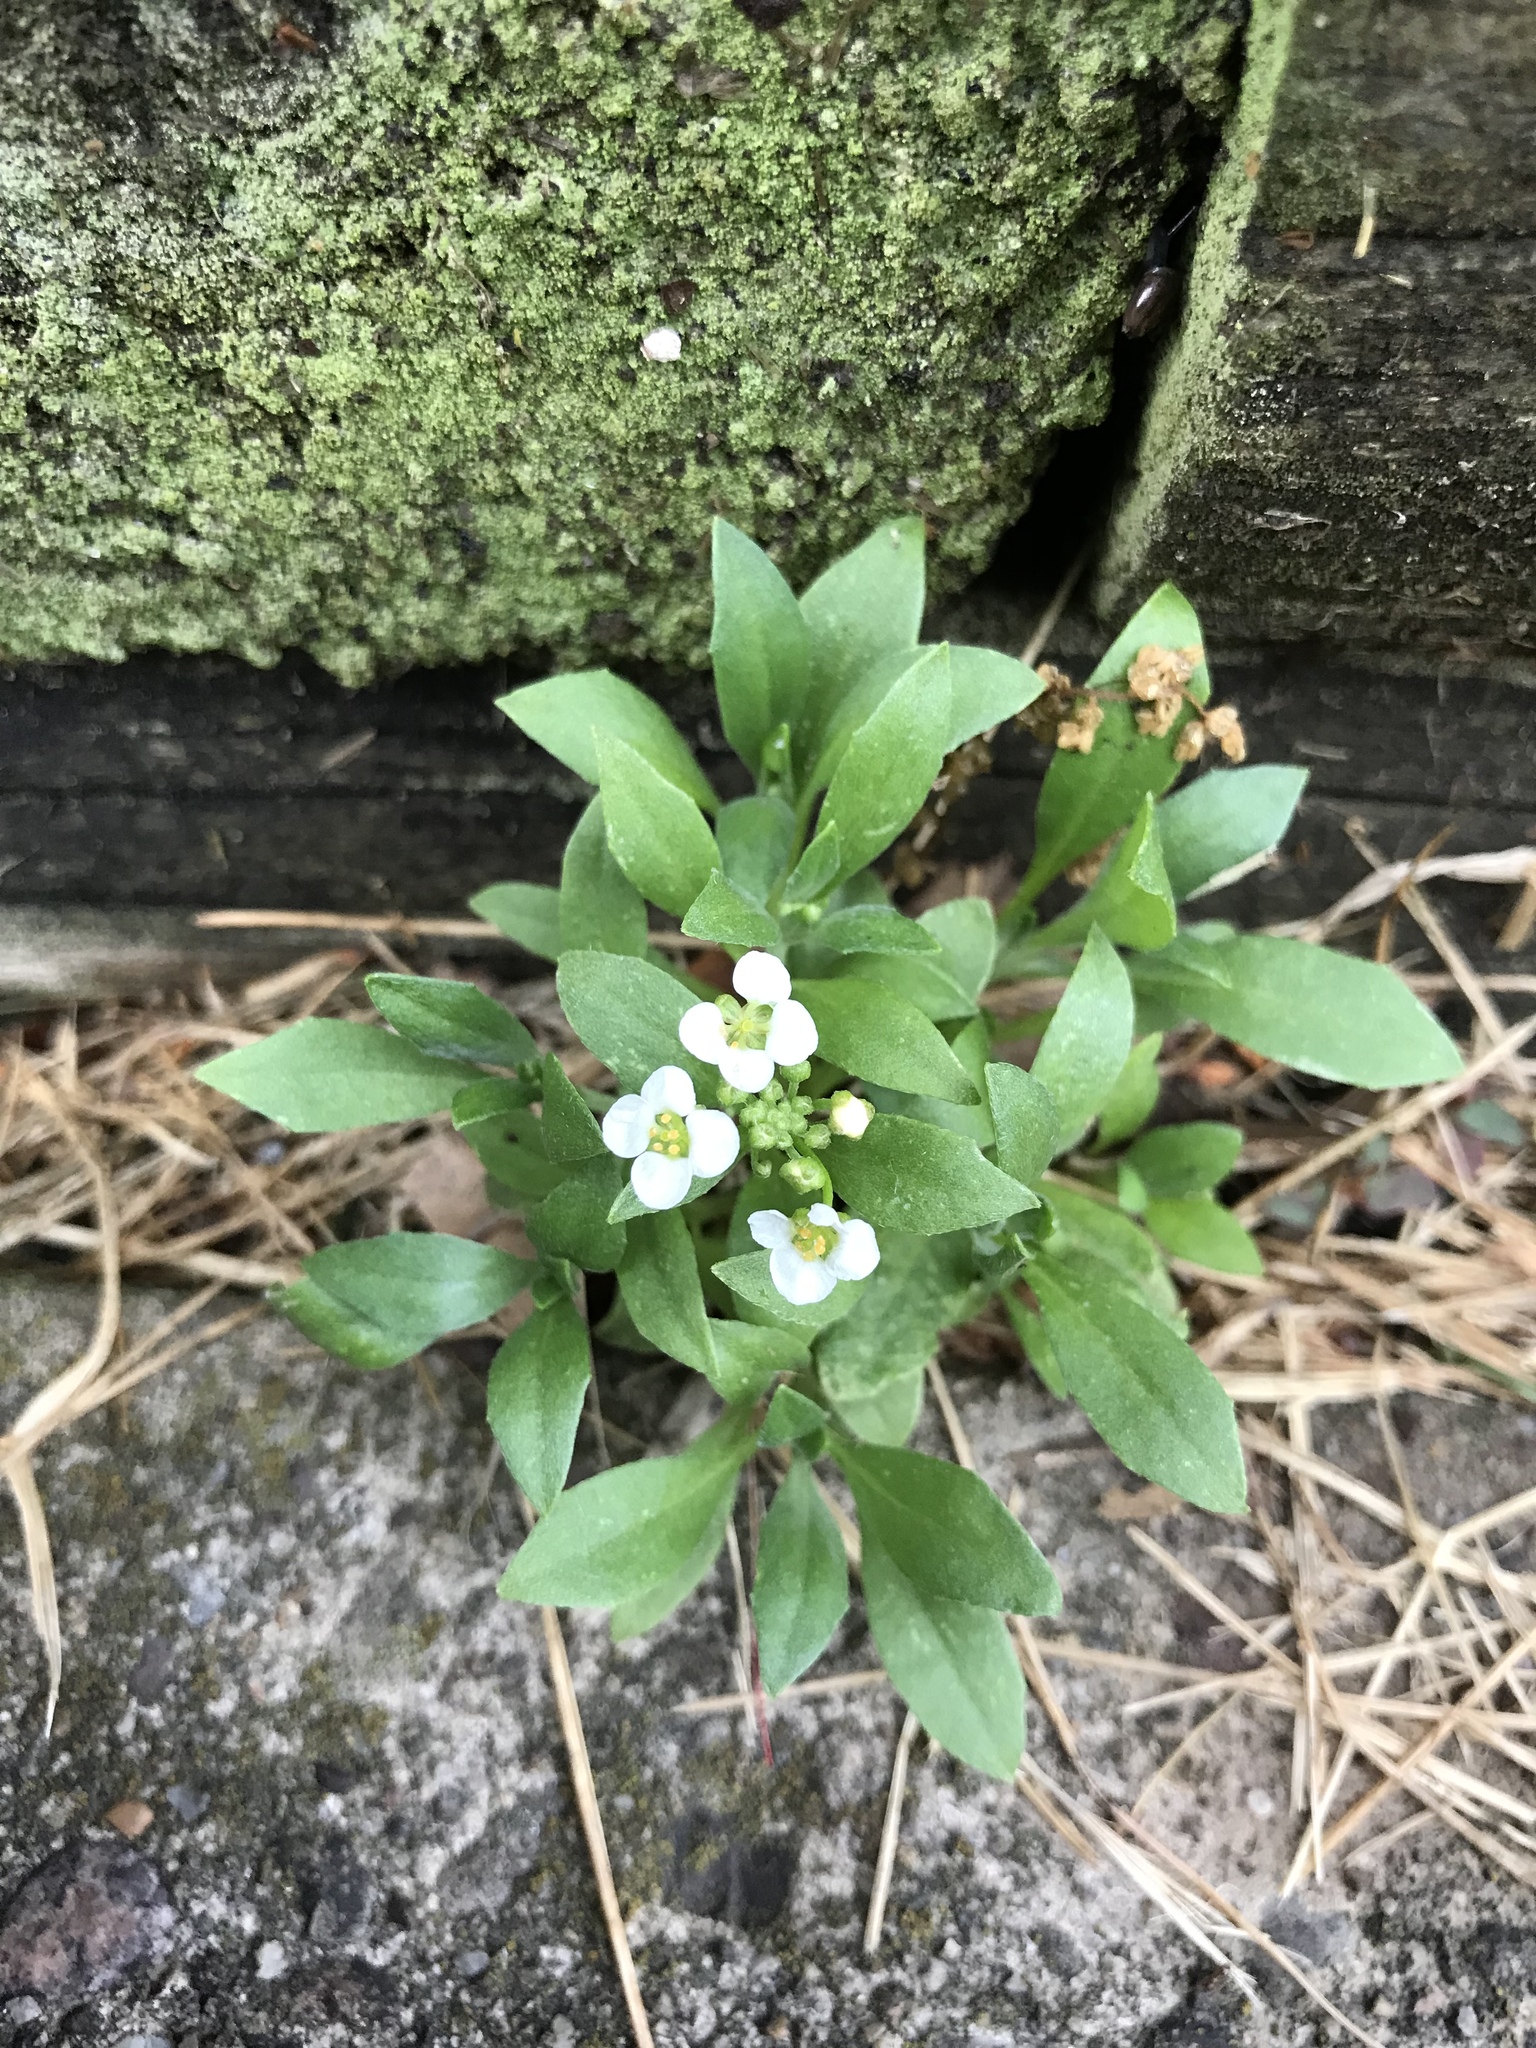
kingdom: Plantae
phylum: Tracheophyta
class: Magnoliopsida
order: Brassicales
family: Brassicaceae
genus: Lobularia
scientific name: Lobularia maritima
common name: Sweet alison
